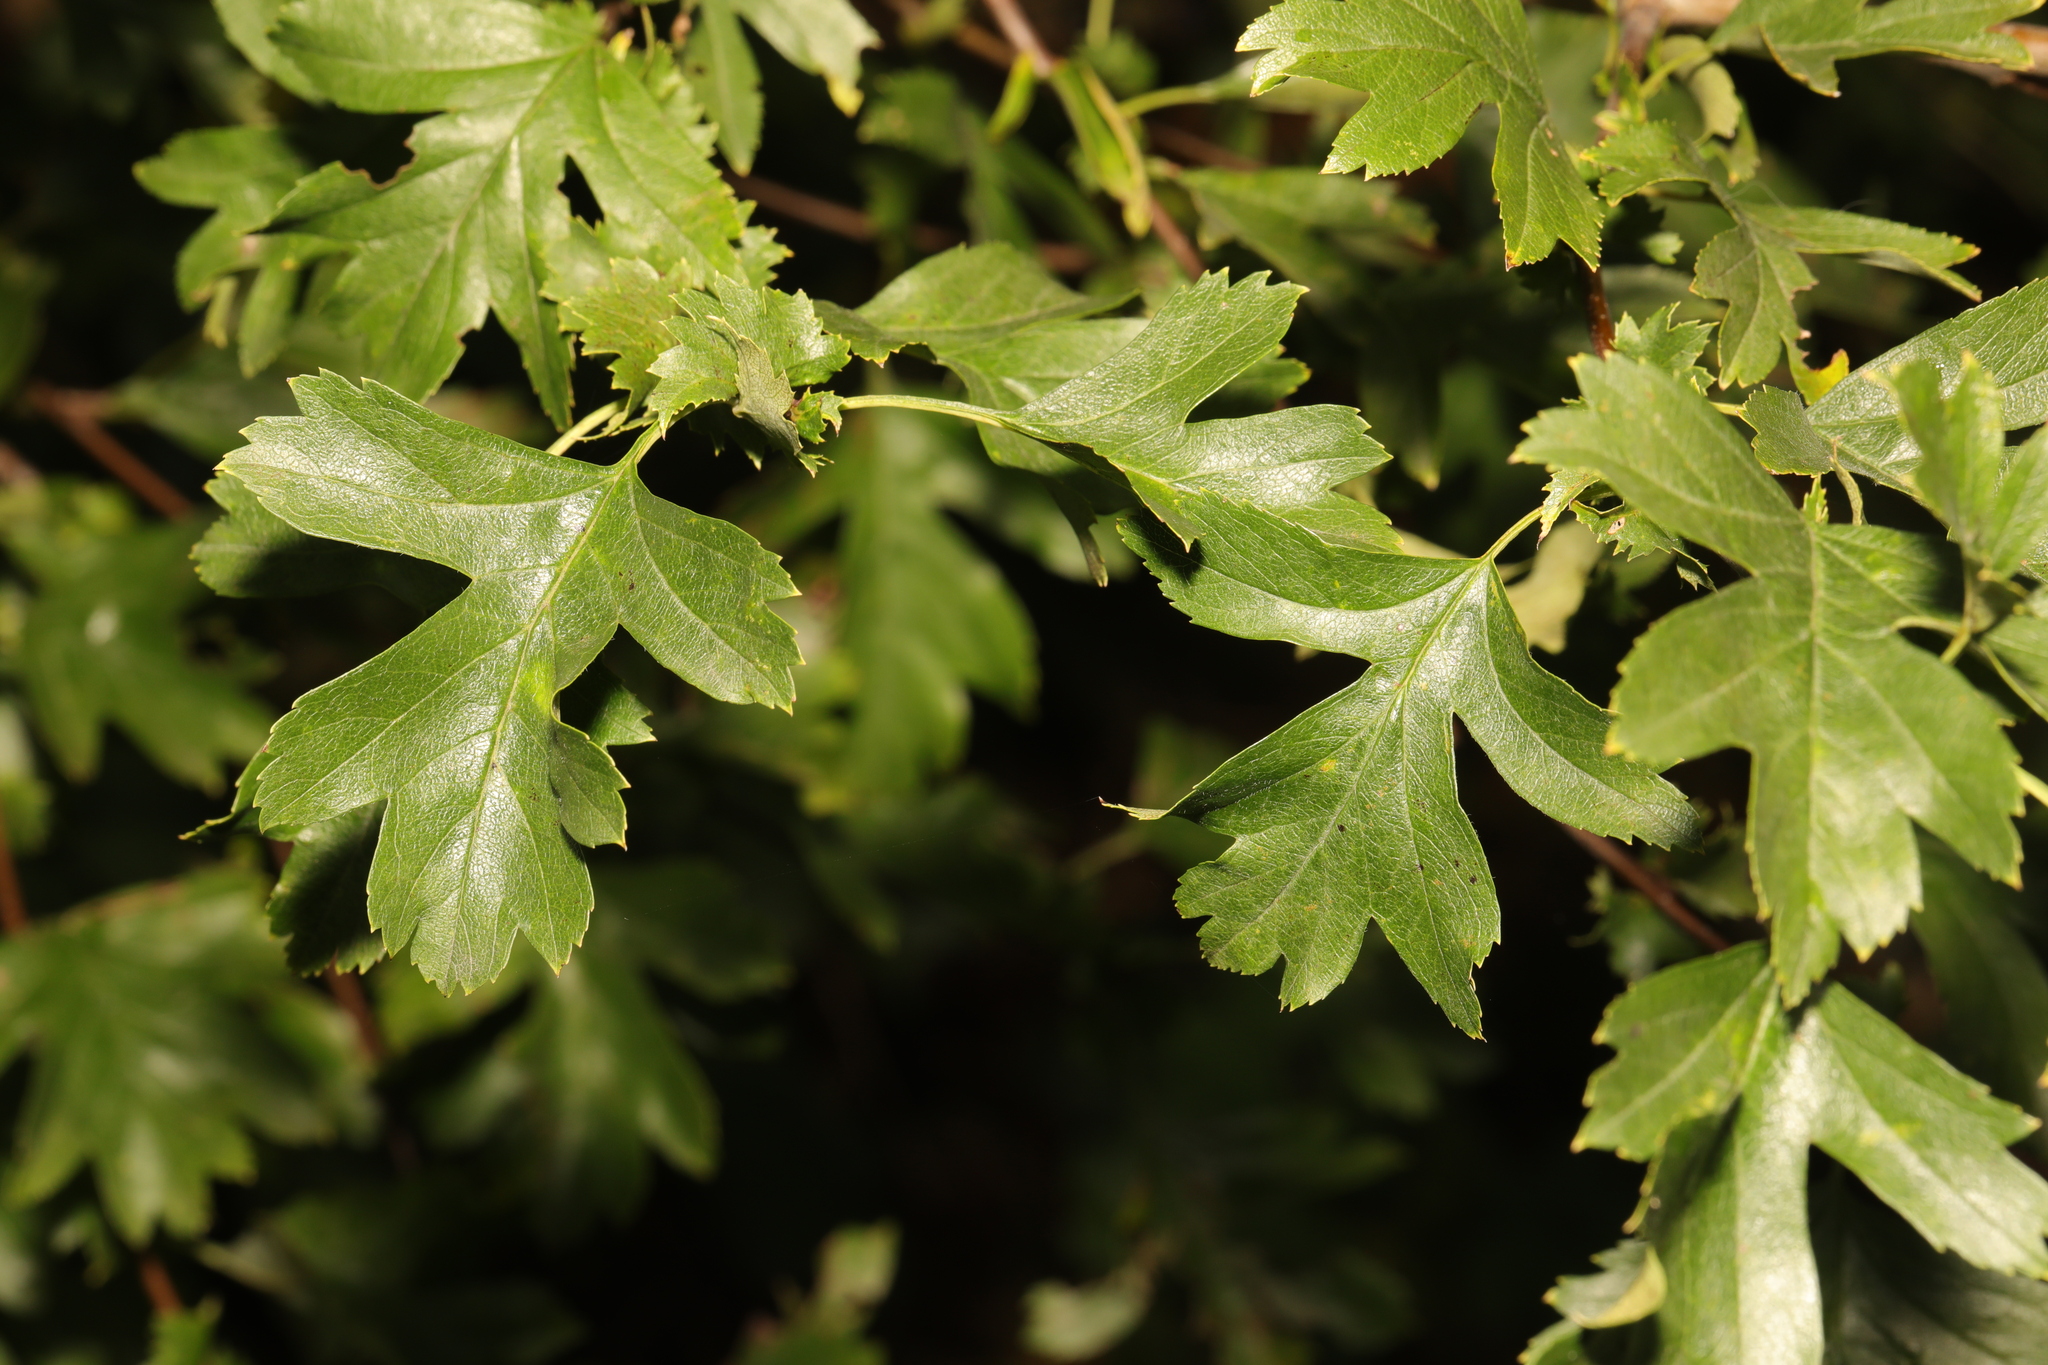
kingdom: Plantae
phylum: Tracheophyta
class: Magnoliopsida
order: Rosales
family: Rosaceae
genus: Crataegus
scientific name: Crataegus monogyna
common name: Hawthorn
